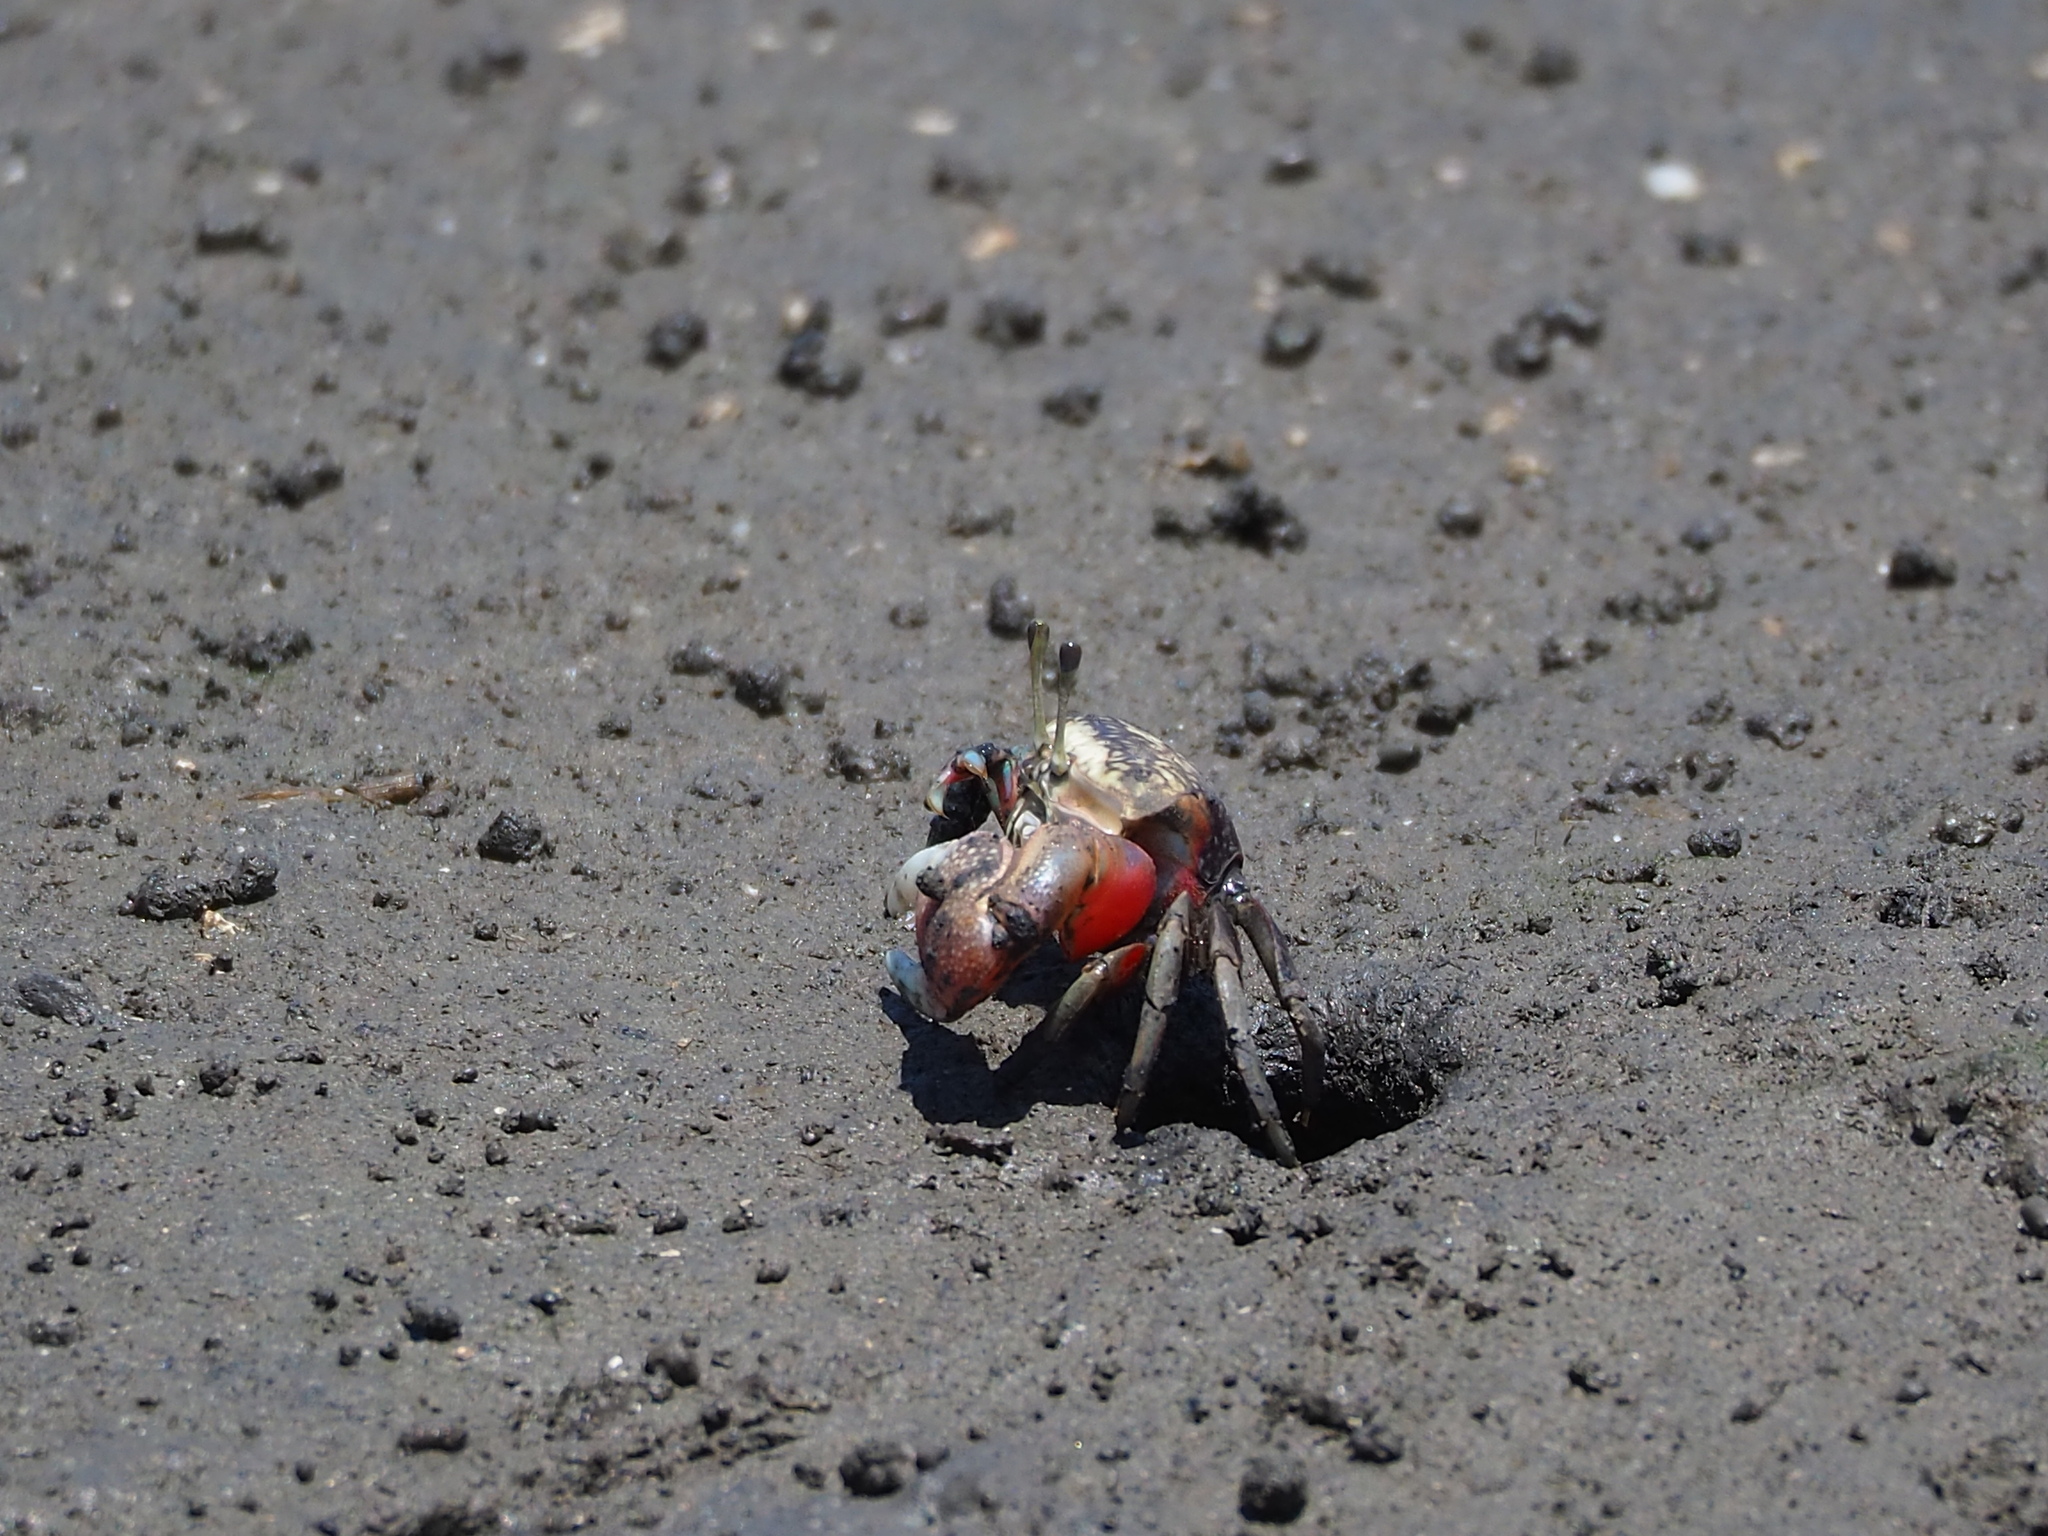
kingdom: Animalia
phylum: Arthropoda
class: Malacostraca
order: Decapoda
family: Ocypodidae
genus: Tubuca
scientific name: Tubuca arcuata
